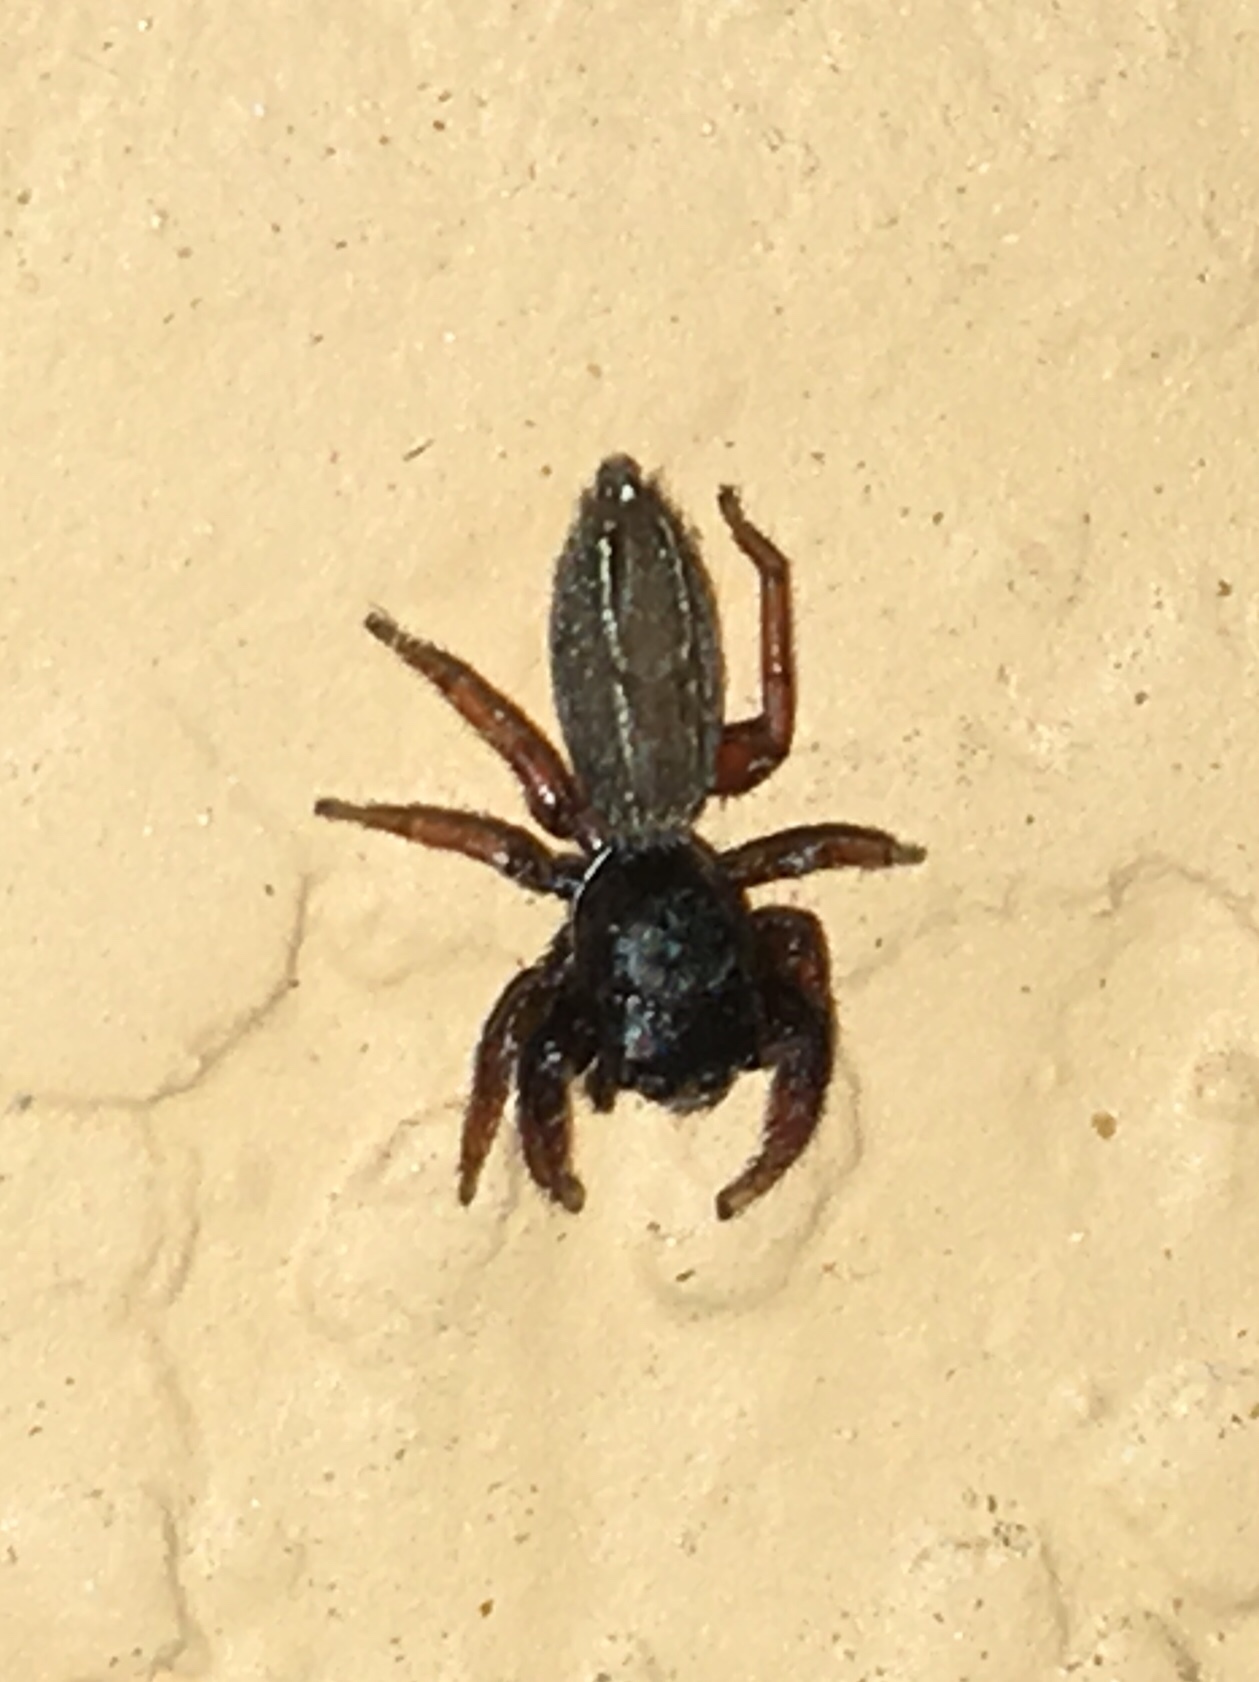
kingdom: Animalia
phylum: Arthropoda
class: Arachnida
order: Araneae
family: Salticidae
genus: Metacyrba
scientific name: Metacyrba taeniola
